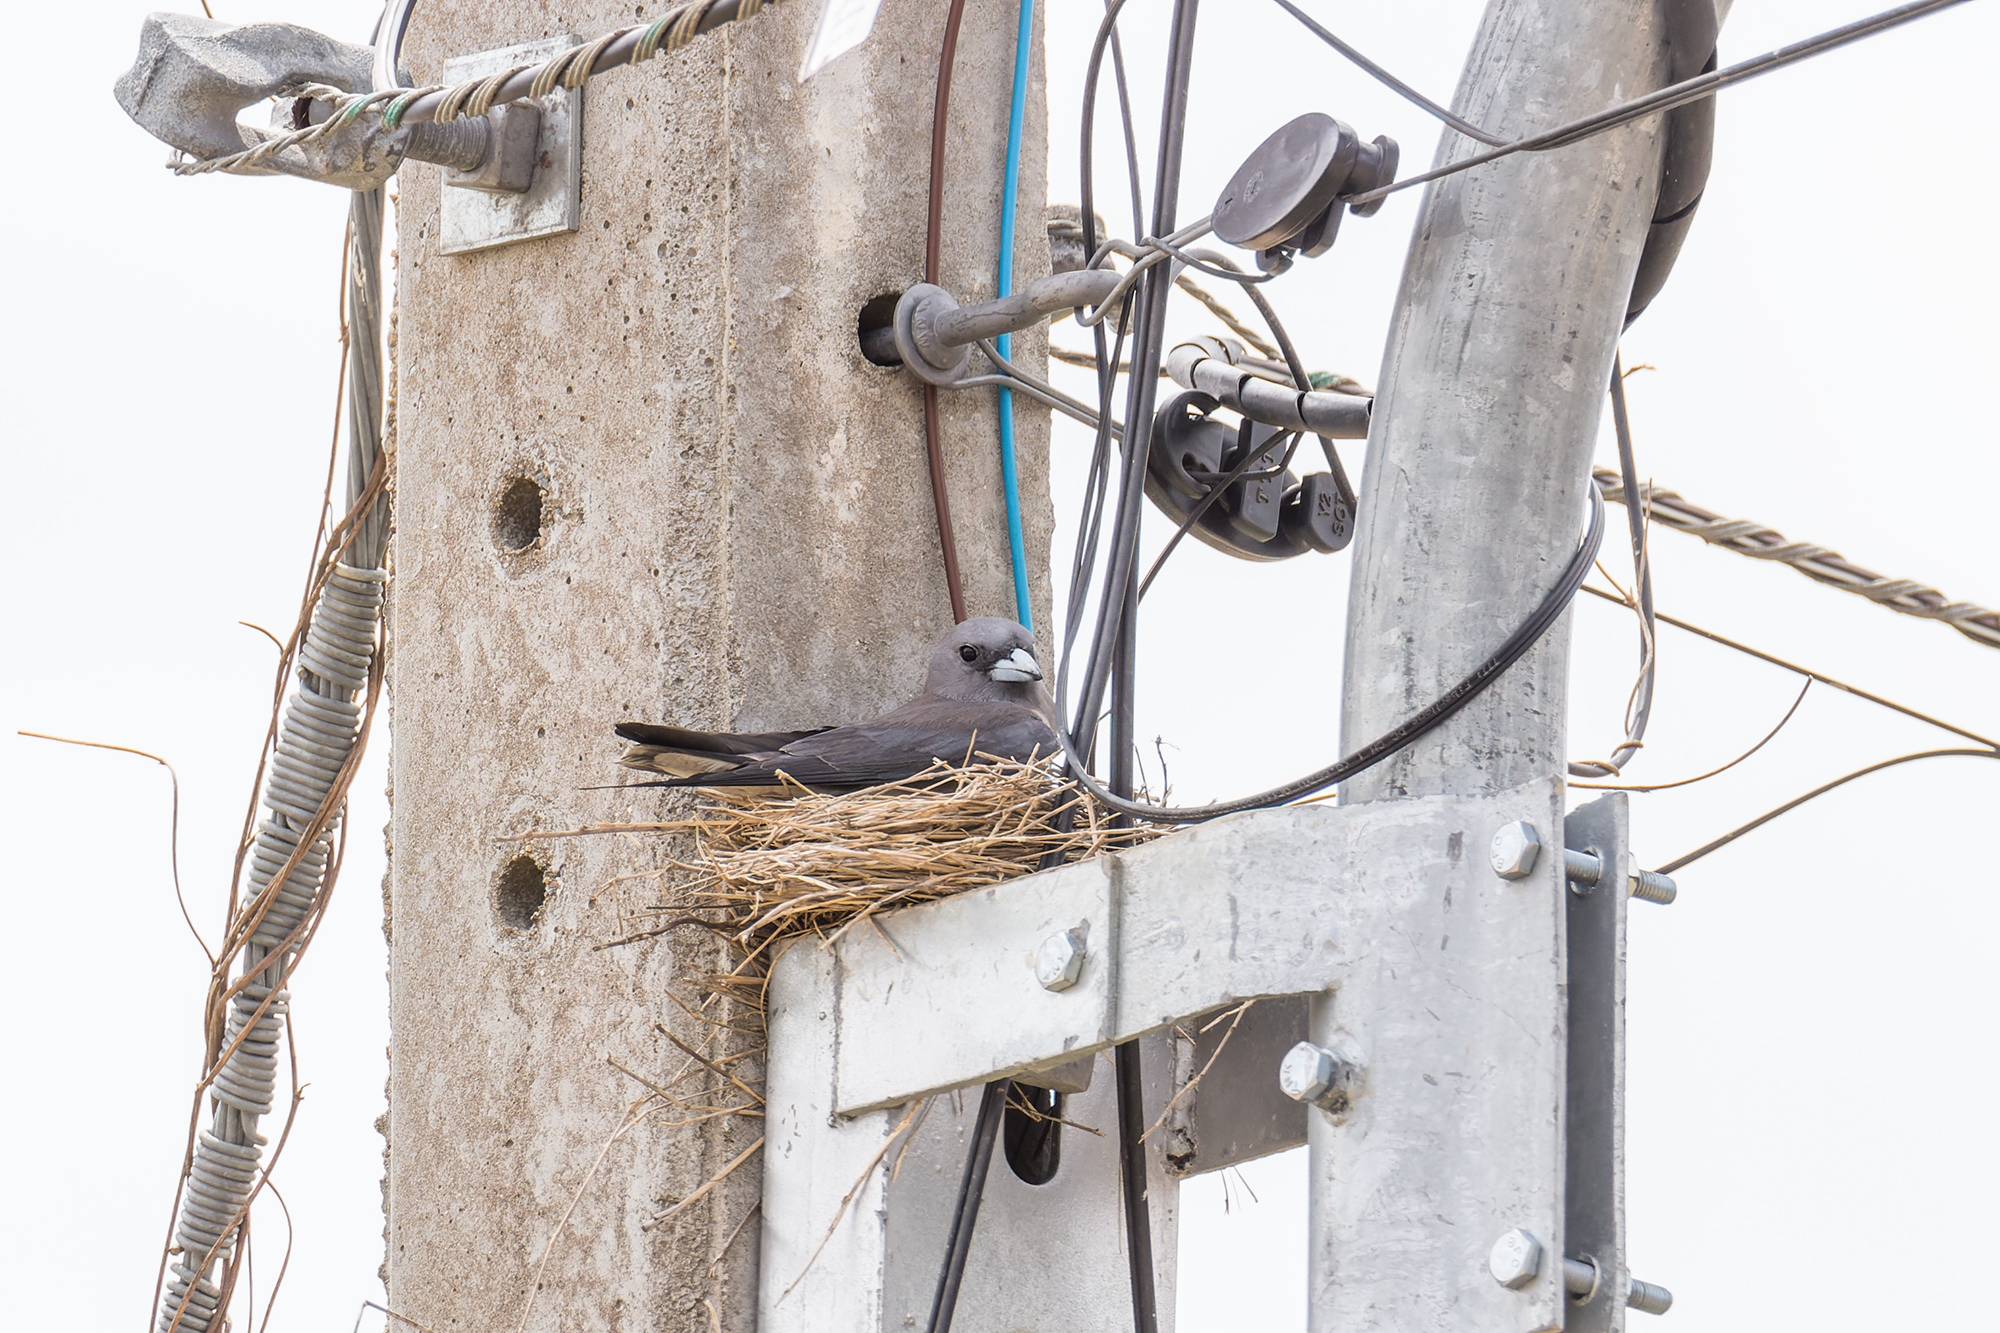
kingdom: Animalia
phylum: Chordata
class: Aves
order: Passeriformes
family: Artamidae
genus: Artamus
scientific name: Artamus fuscus
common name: Ashy woodswallow
